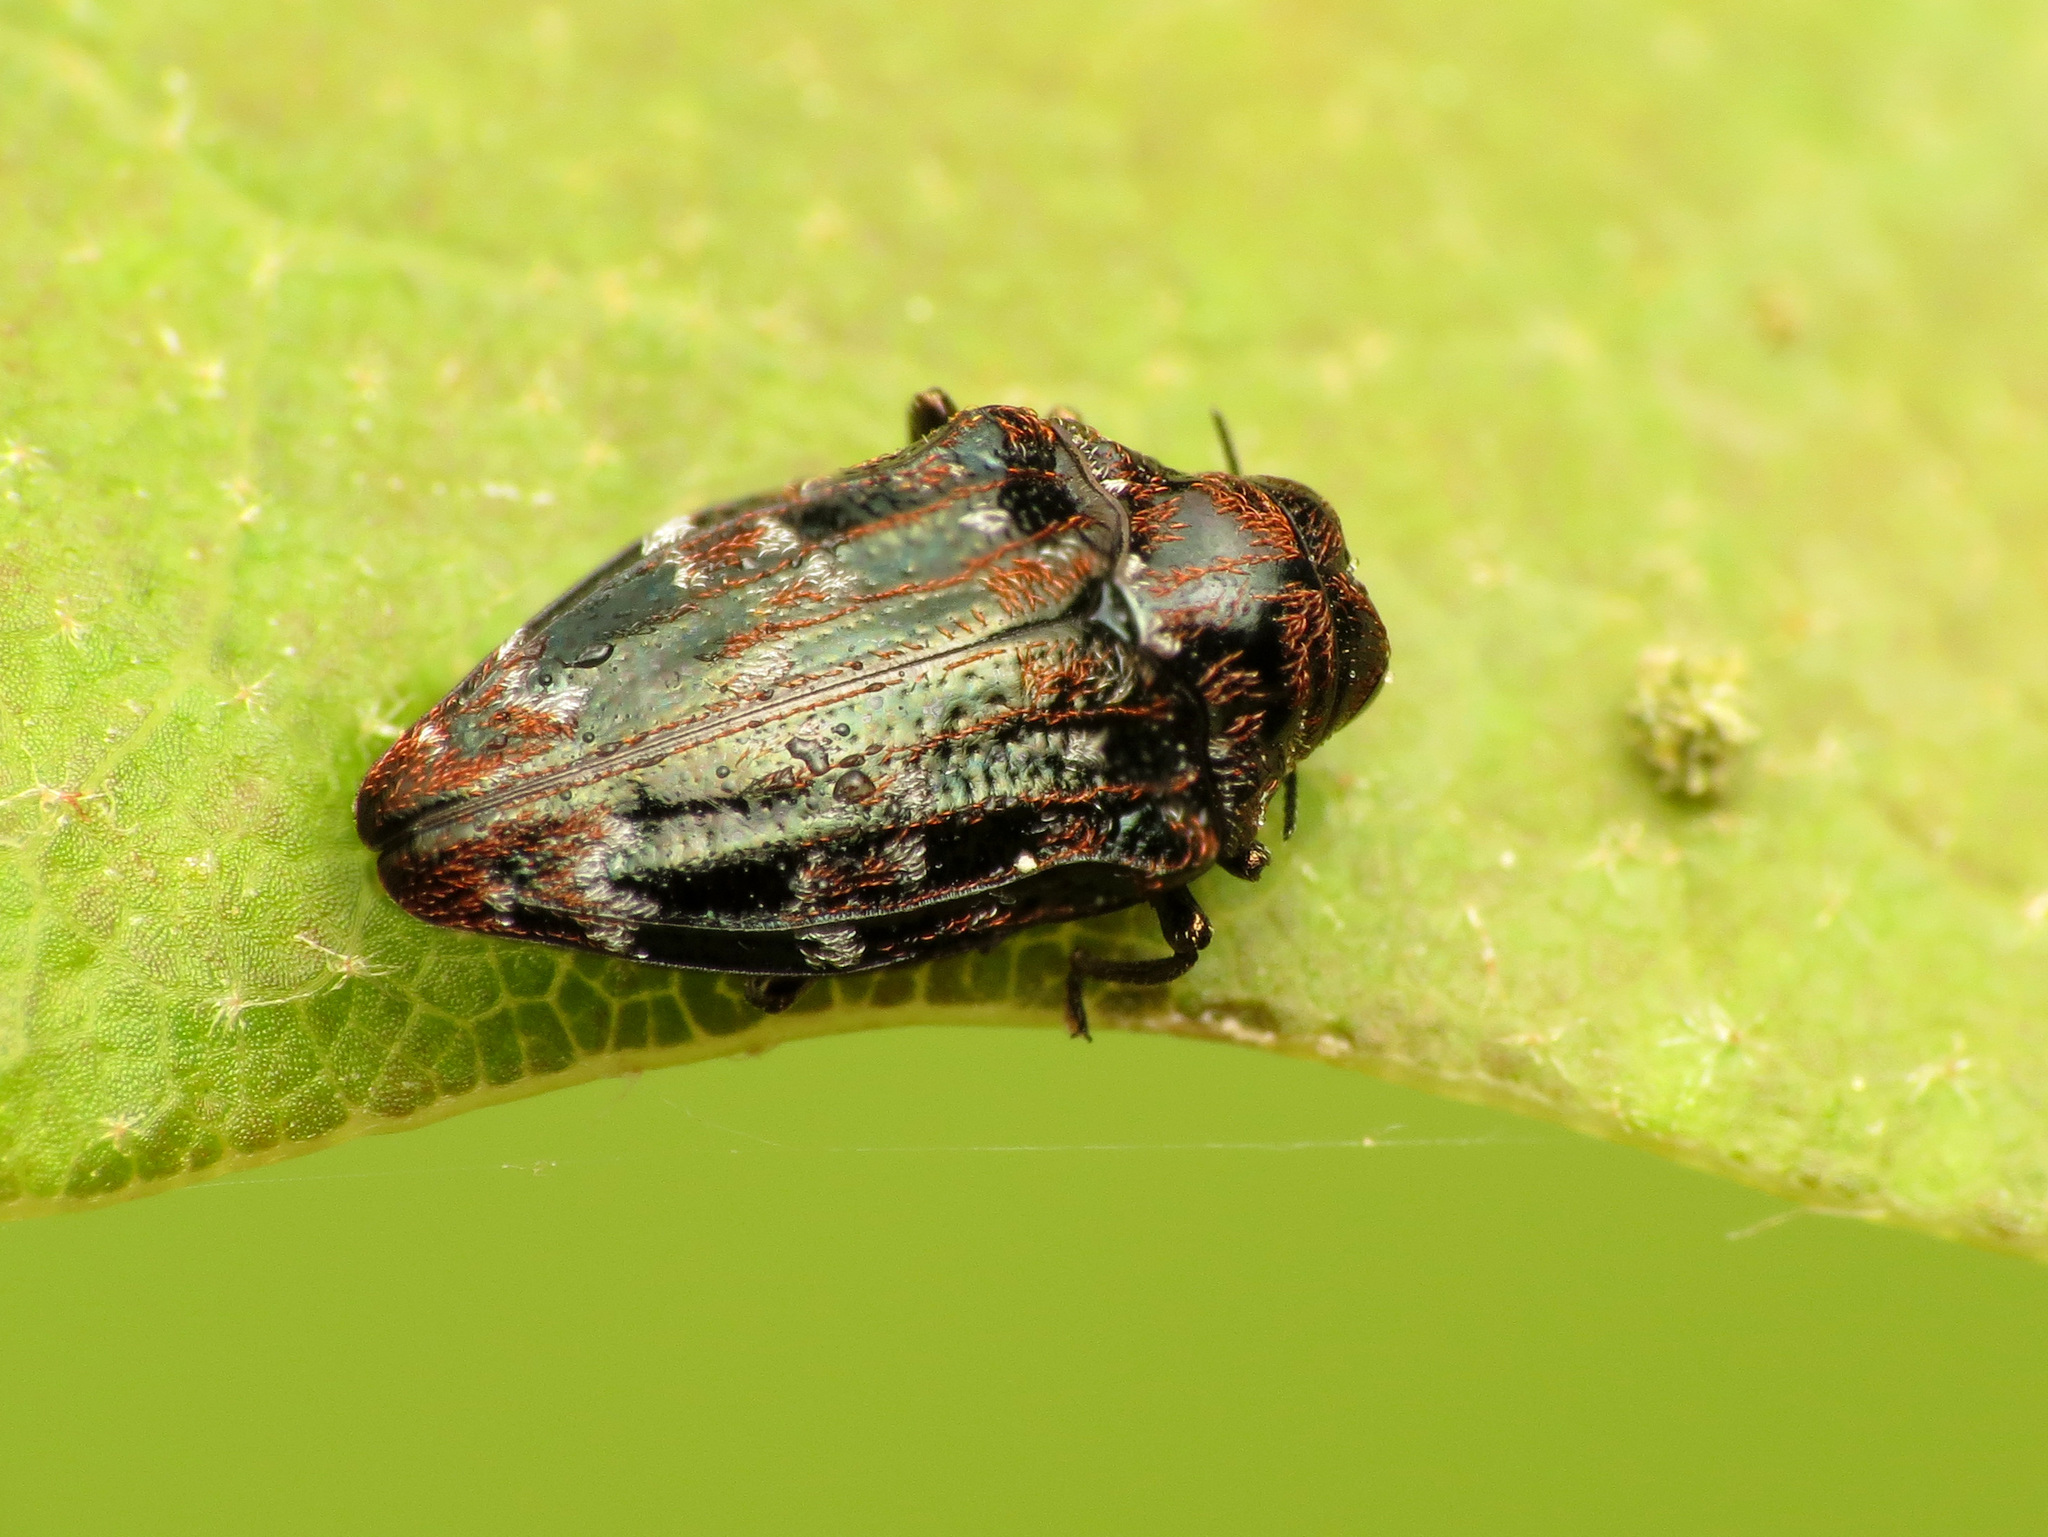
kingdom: Animalia
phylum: Arthropoda
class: Insecta
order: Coleoptera
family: Buprestidae
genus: Brachys
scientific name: Brachys ovatus
